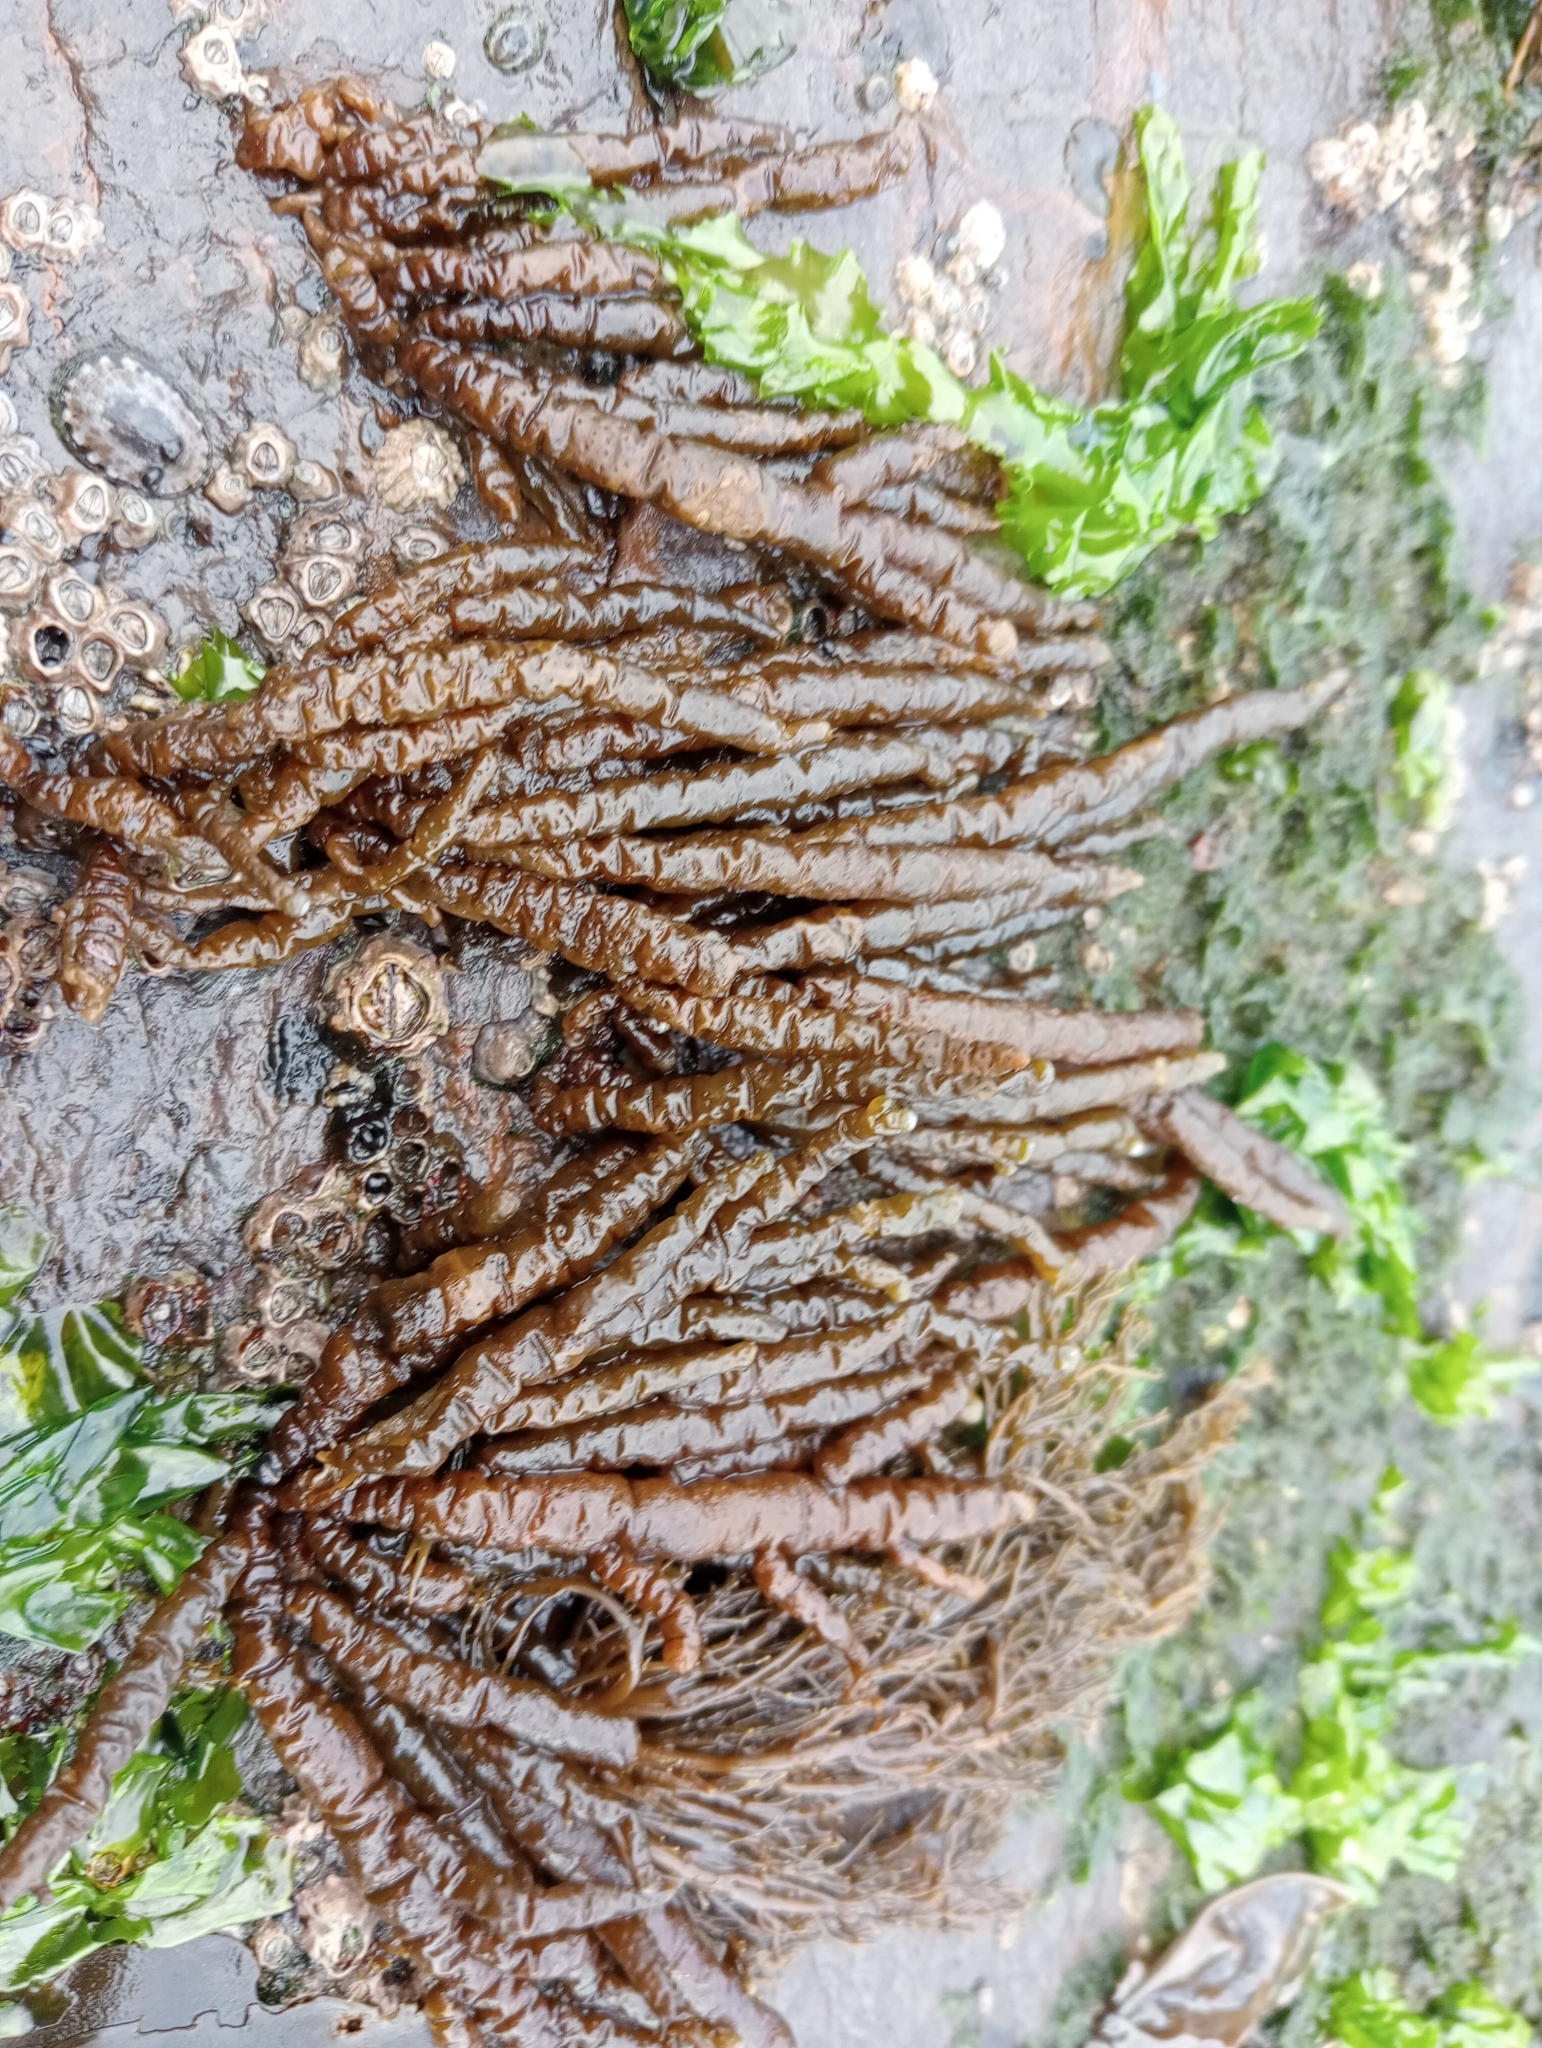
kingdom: Chromista
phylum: Ochrophyta
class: Phaeophyceae
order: Scytothamnales
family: Splachnidiaceae
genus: Splachnidium
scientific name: Splachnidium rugosum
